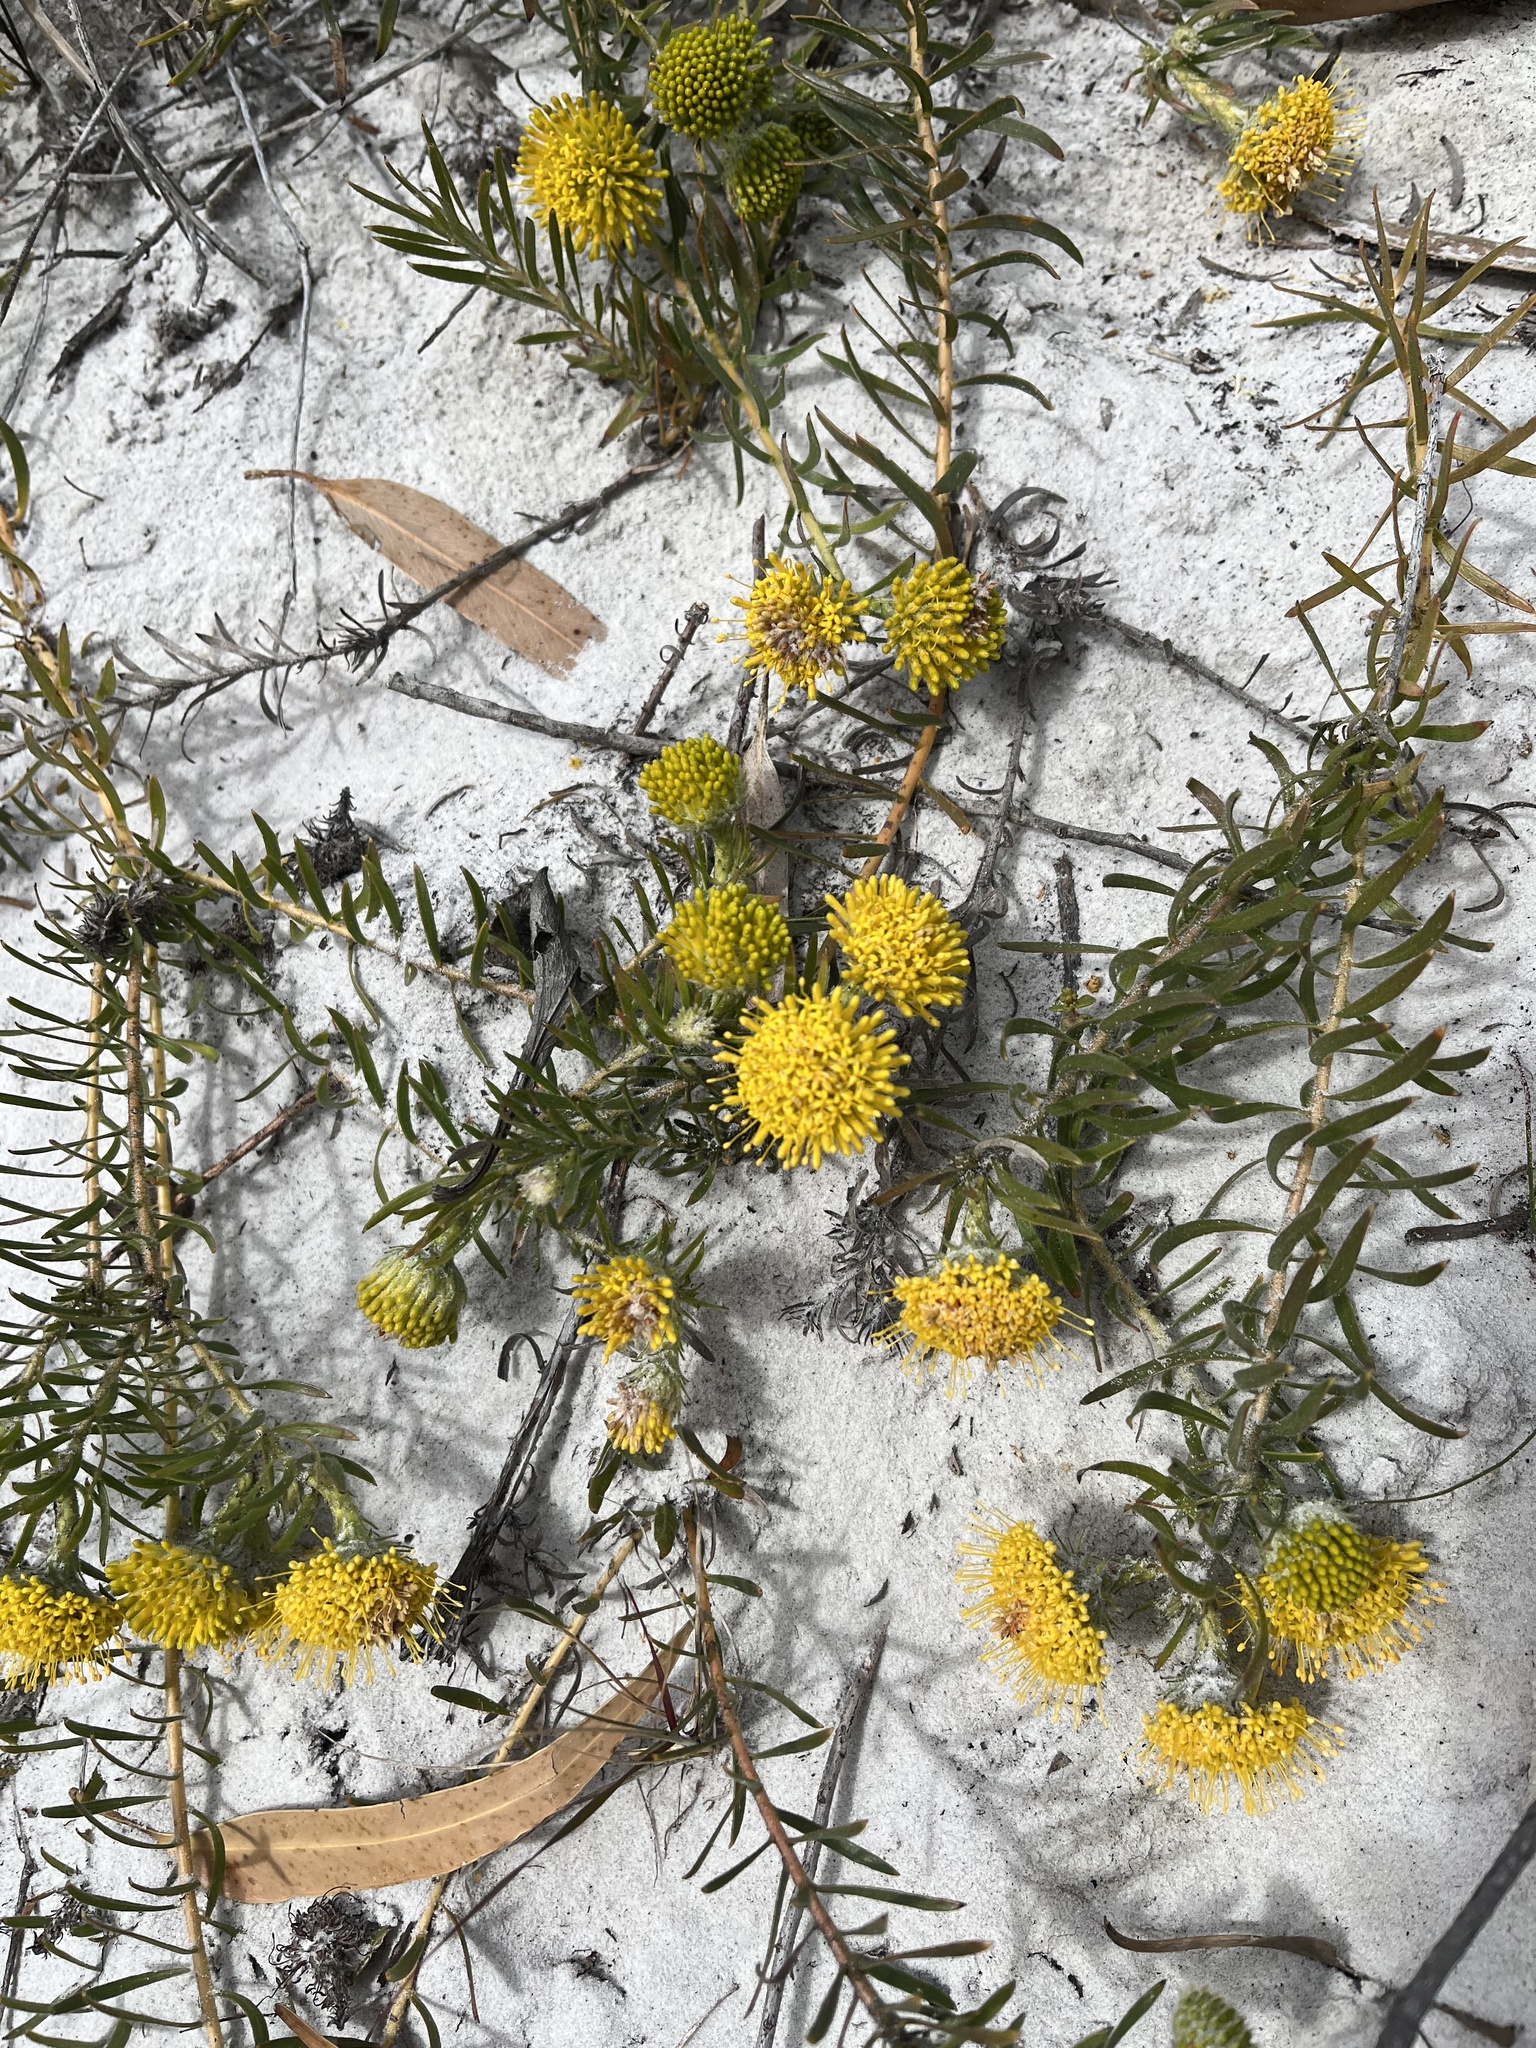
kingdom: Plantae
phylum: Tracheophyta
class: Magnoliopsida
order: Proteales
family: Proteaceae
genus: Leucospermum
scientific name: Leucospermum prostratum
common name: Yellow-trailing pincushion
